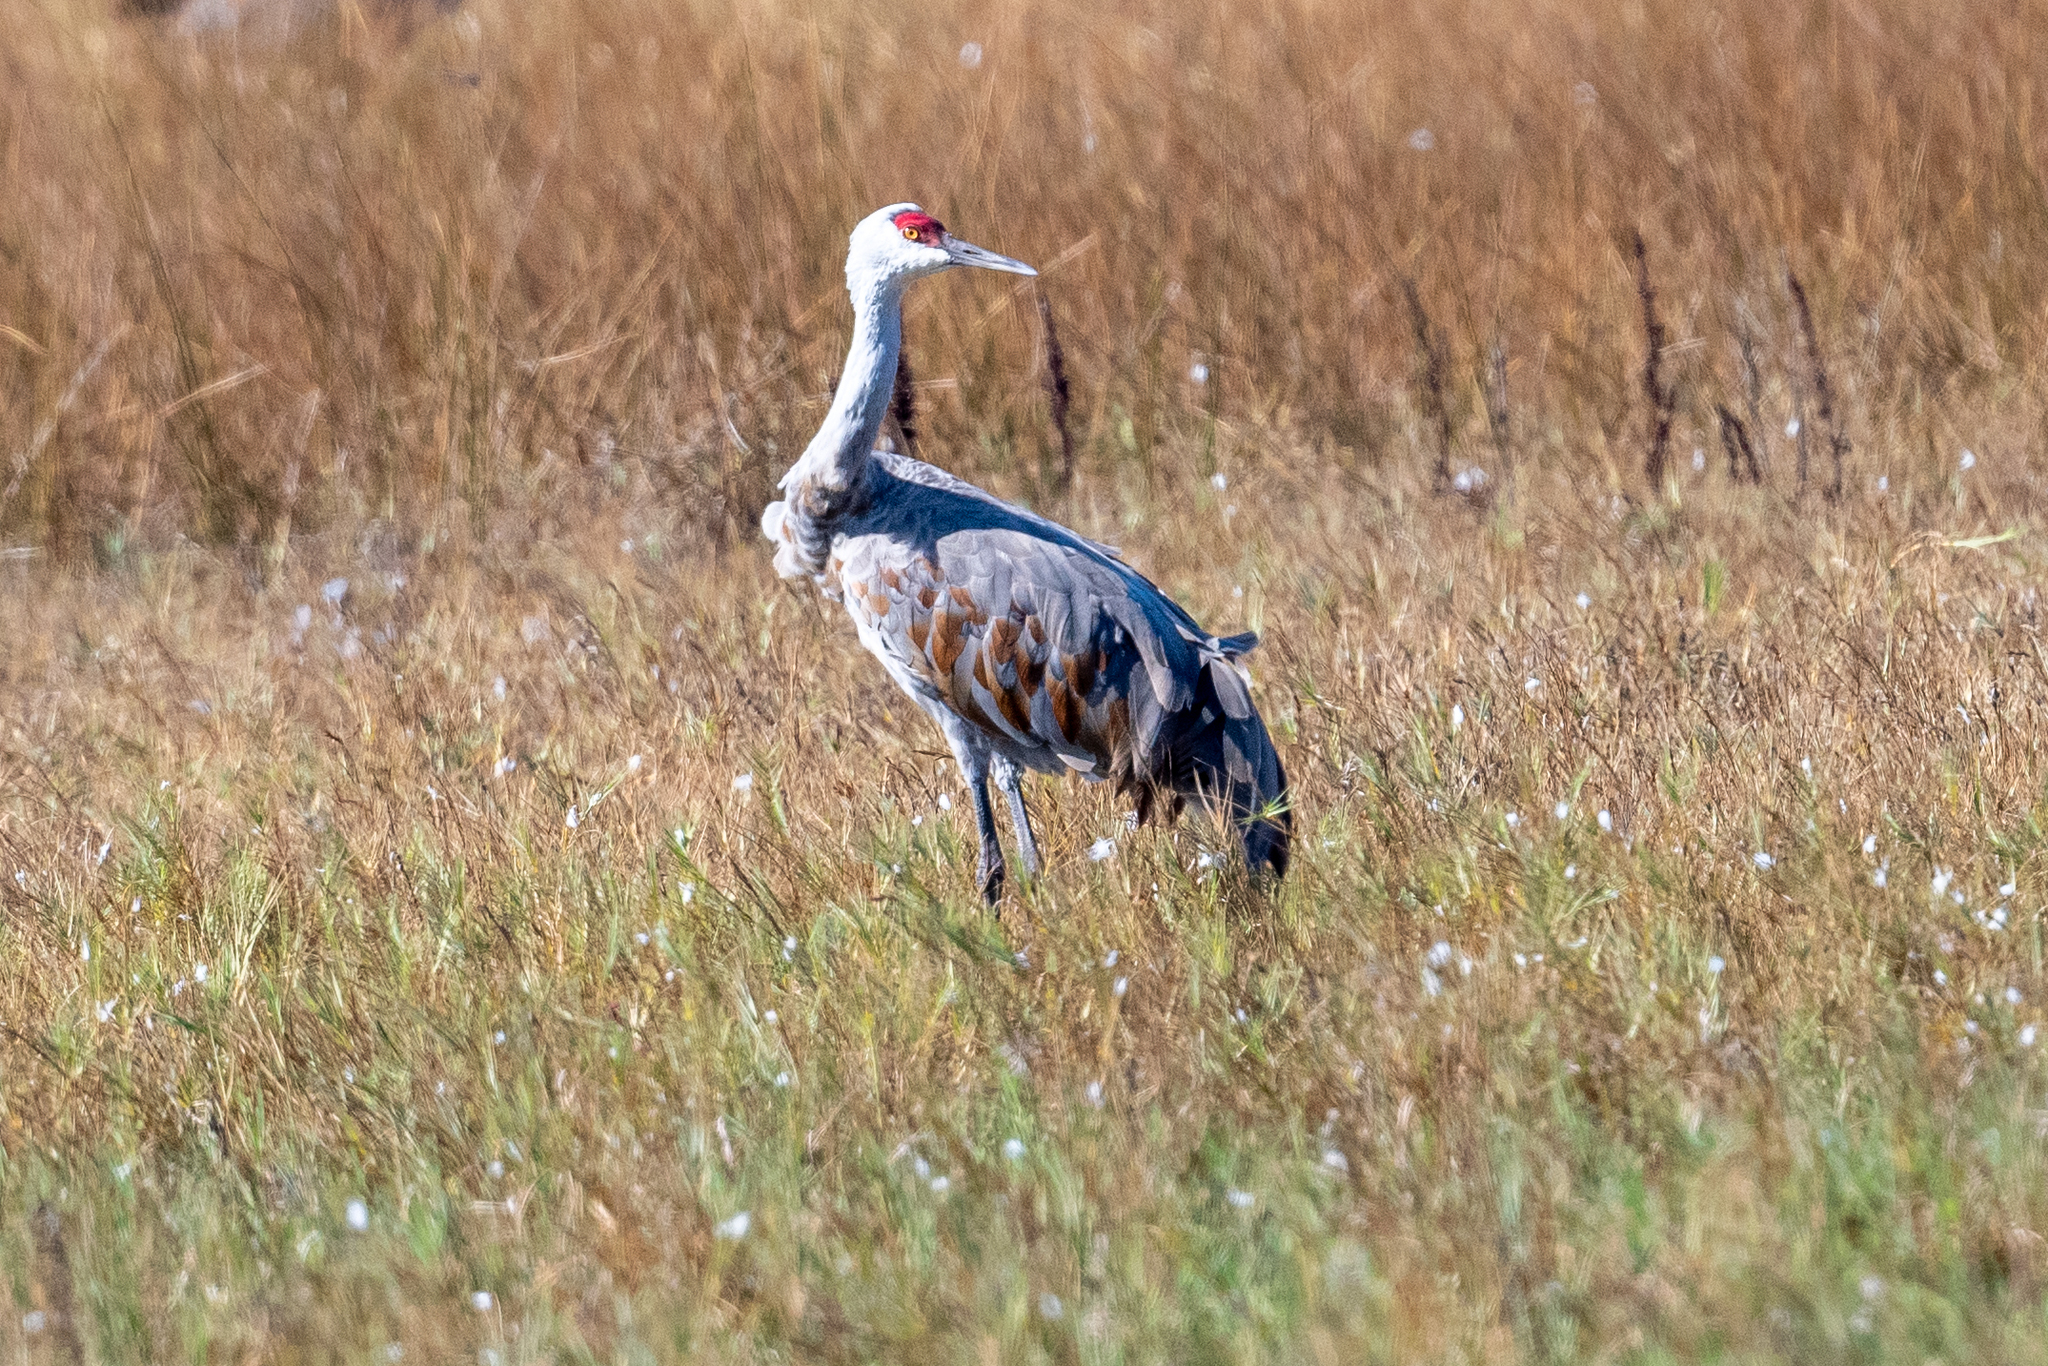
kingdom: Animalia
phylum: Chordata
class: Aves
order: Gruiformes
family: Gruidae
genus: Grus
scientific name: Grus canadensis
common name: Sandhill crane
